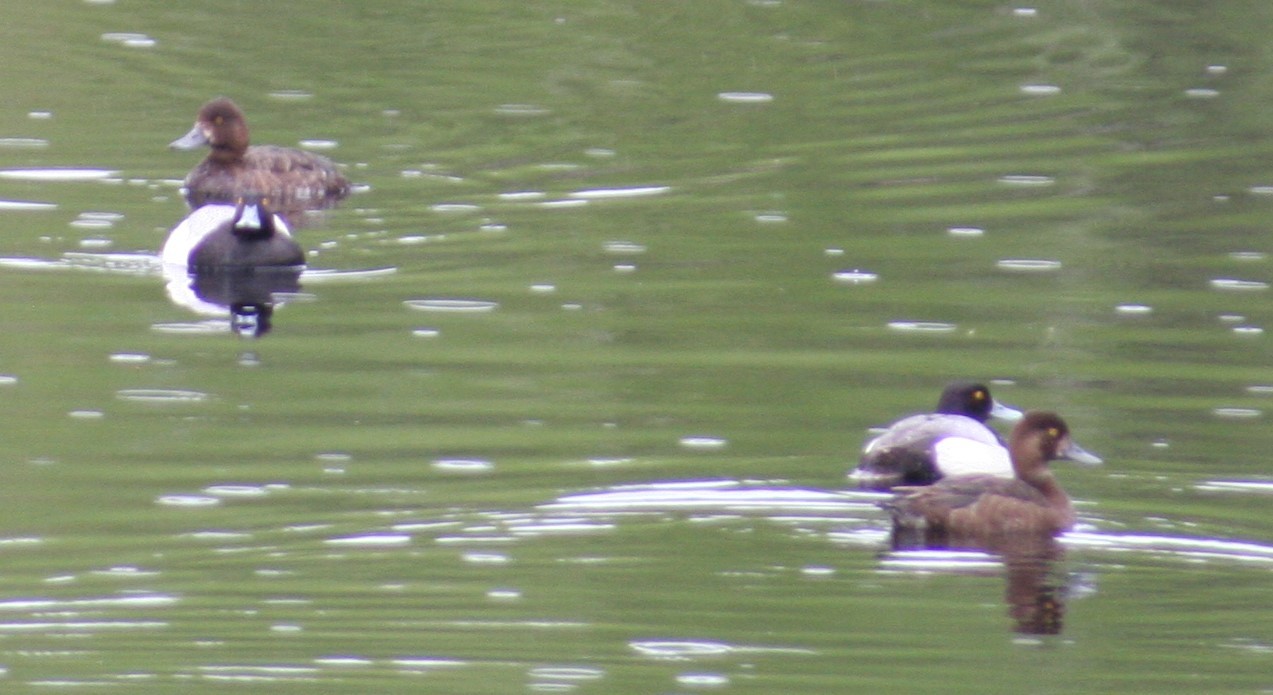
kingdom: Animalia
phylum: Chordata
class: Aves
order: Anseriformes
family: Anatidae
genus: Aythya
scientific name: Aythya affinis
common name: Lesser scaup
